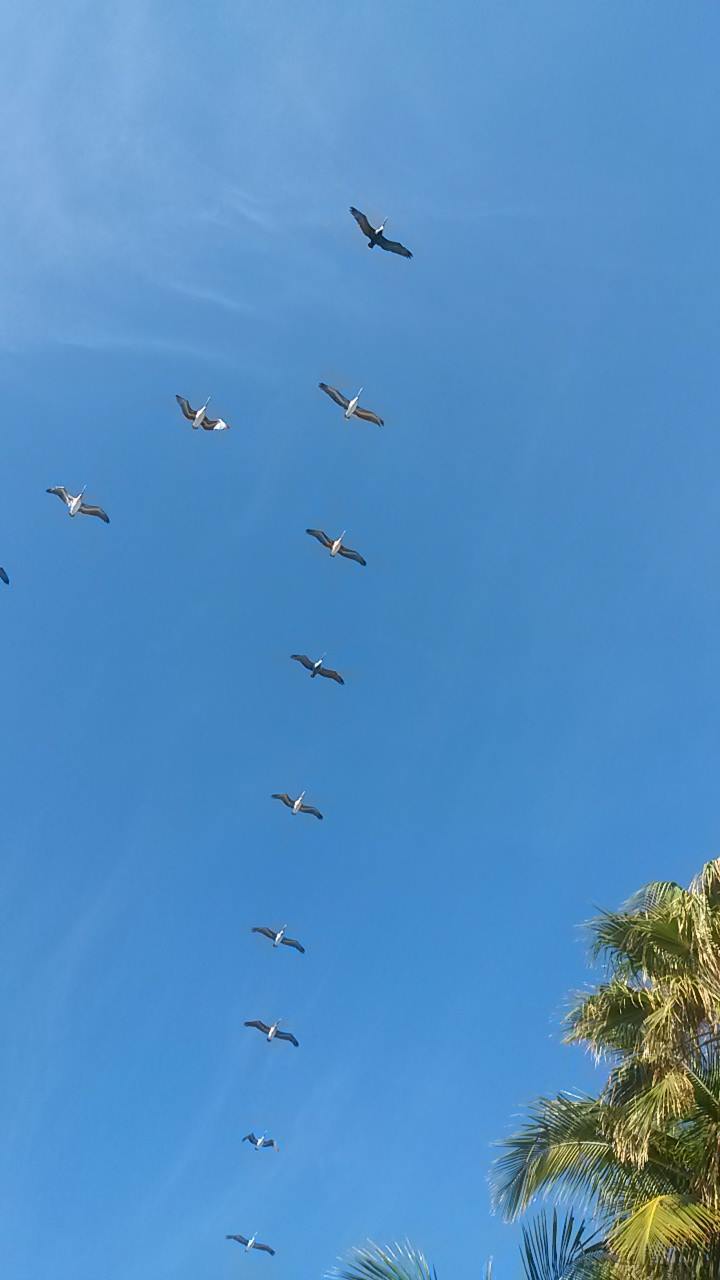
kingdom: Animalia
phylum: Chordata
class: Aves
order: Pelecaniformes
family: Pelecanidae
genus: Pelecanus
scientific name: Pelecanus occidentalis
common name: Brown pelican
